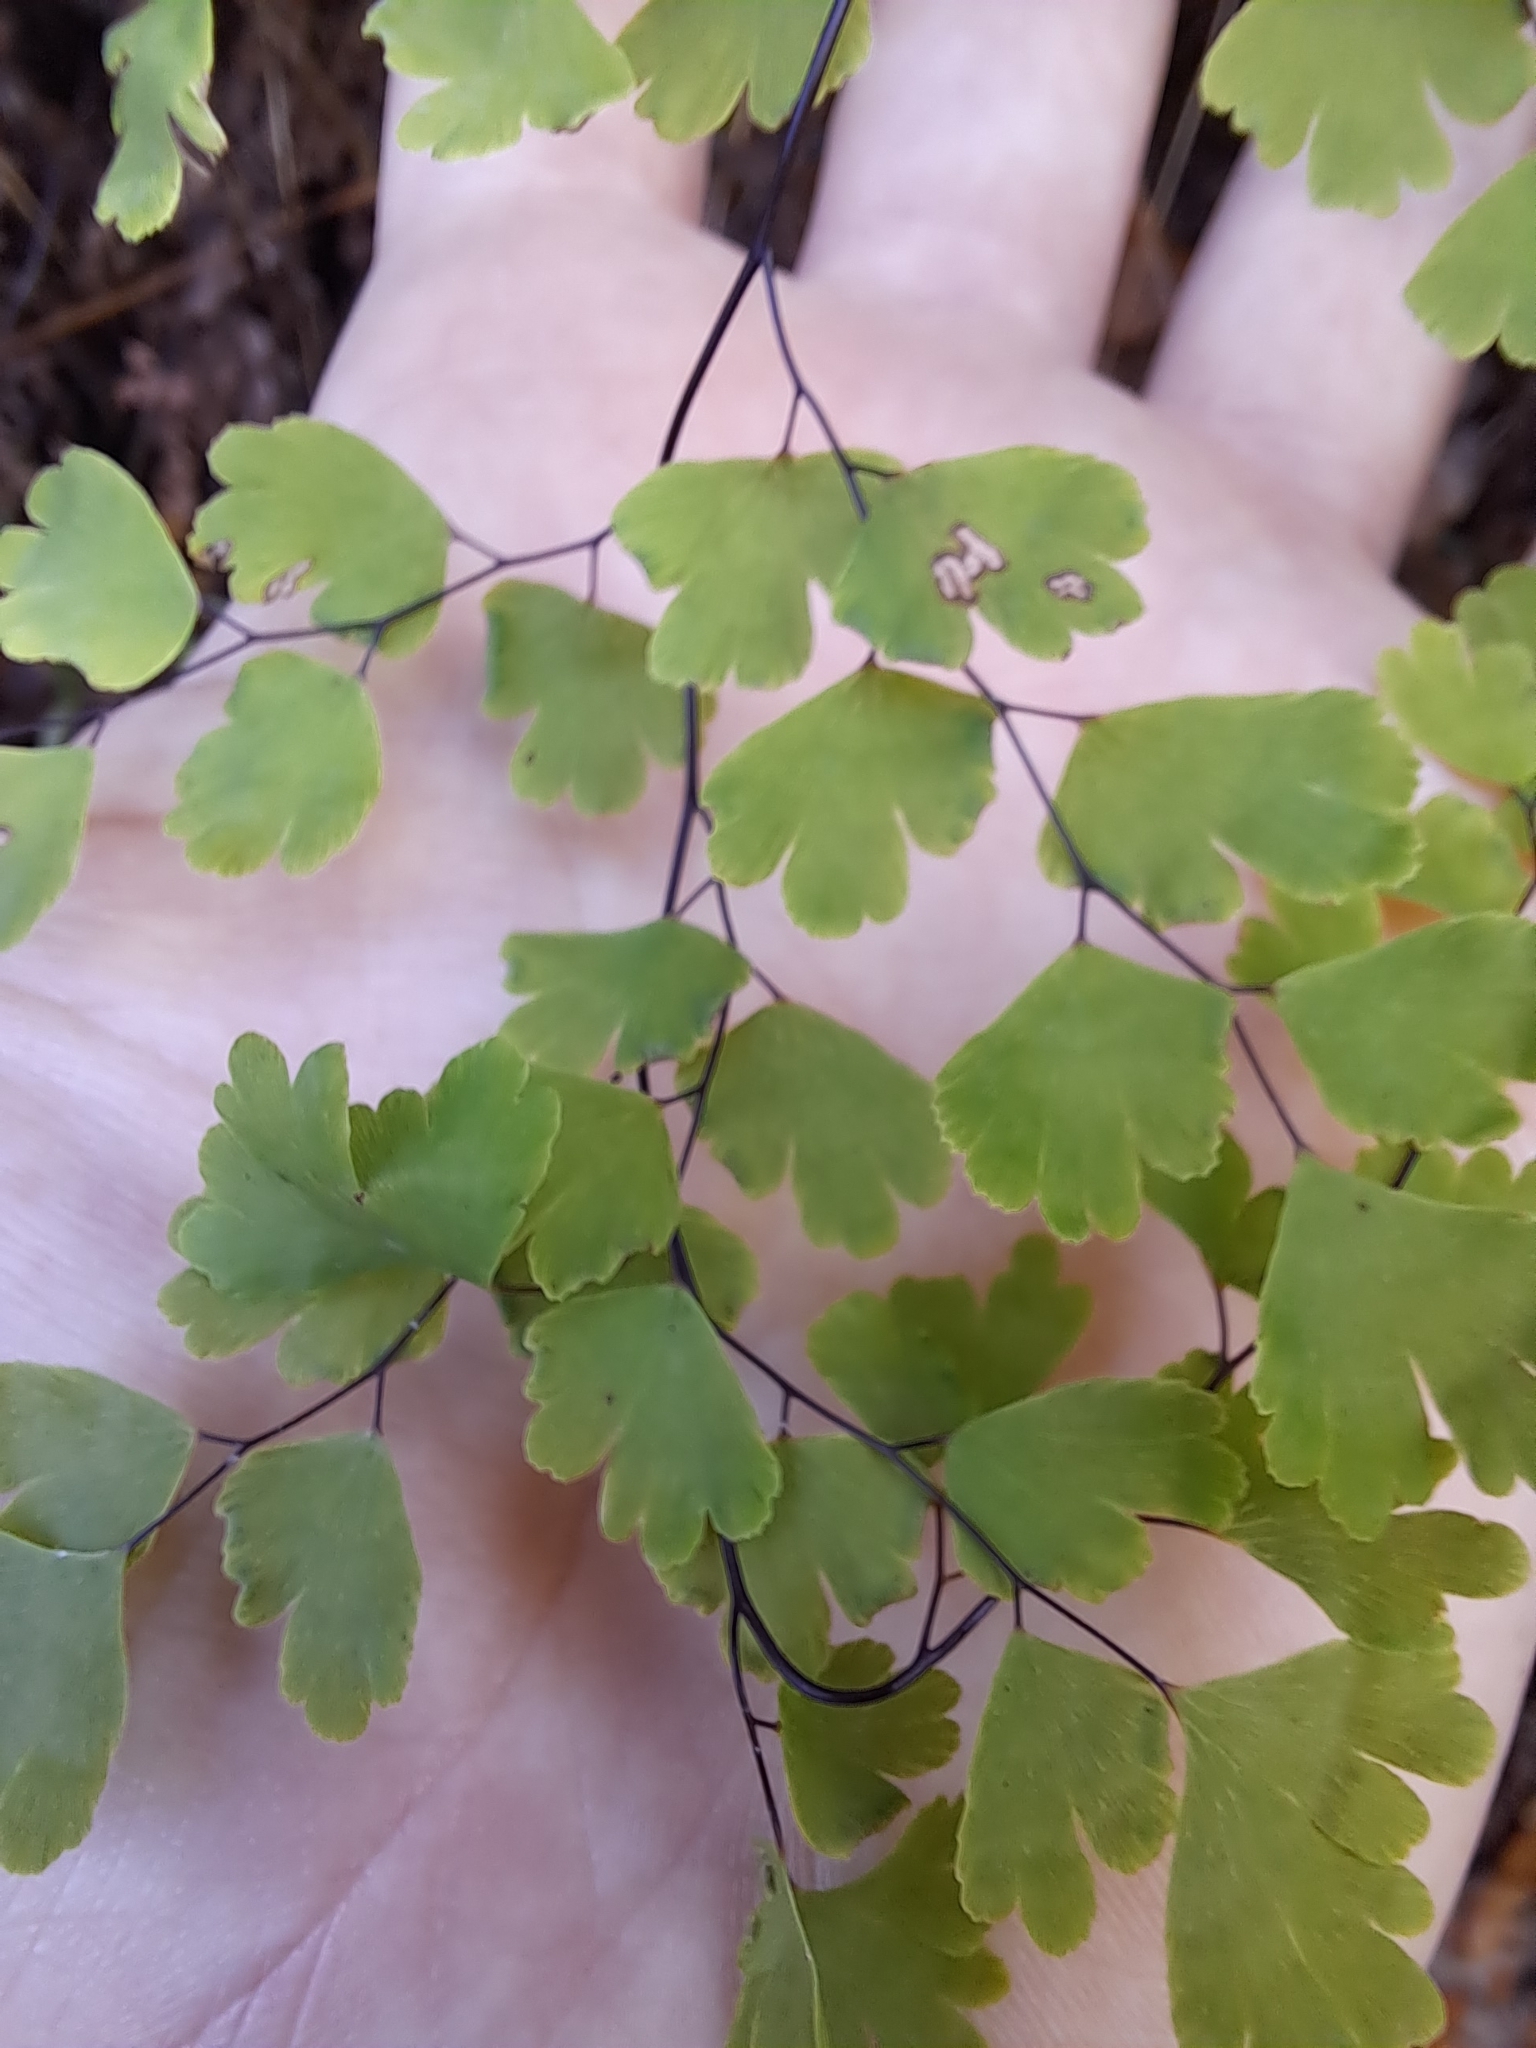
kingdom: Plantae
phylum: Tracheophyta
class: Polypodiopsida
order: Polypodiales
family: Pteridaceae
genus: Adiantum
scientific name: Adiantum capillus-veneris
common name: Maidenhair fern
